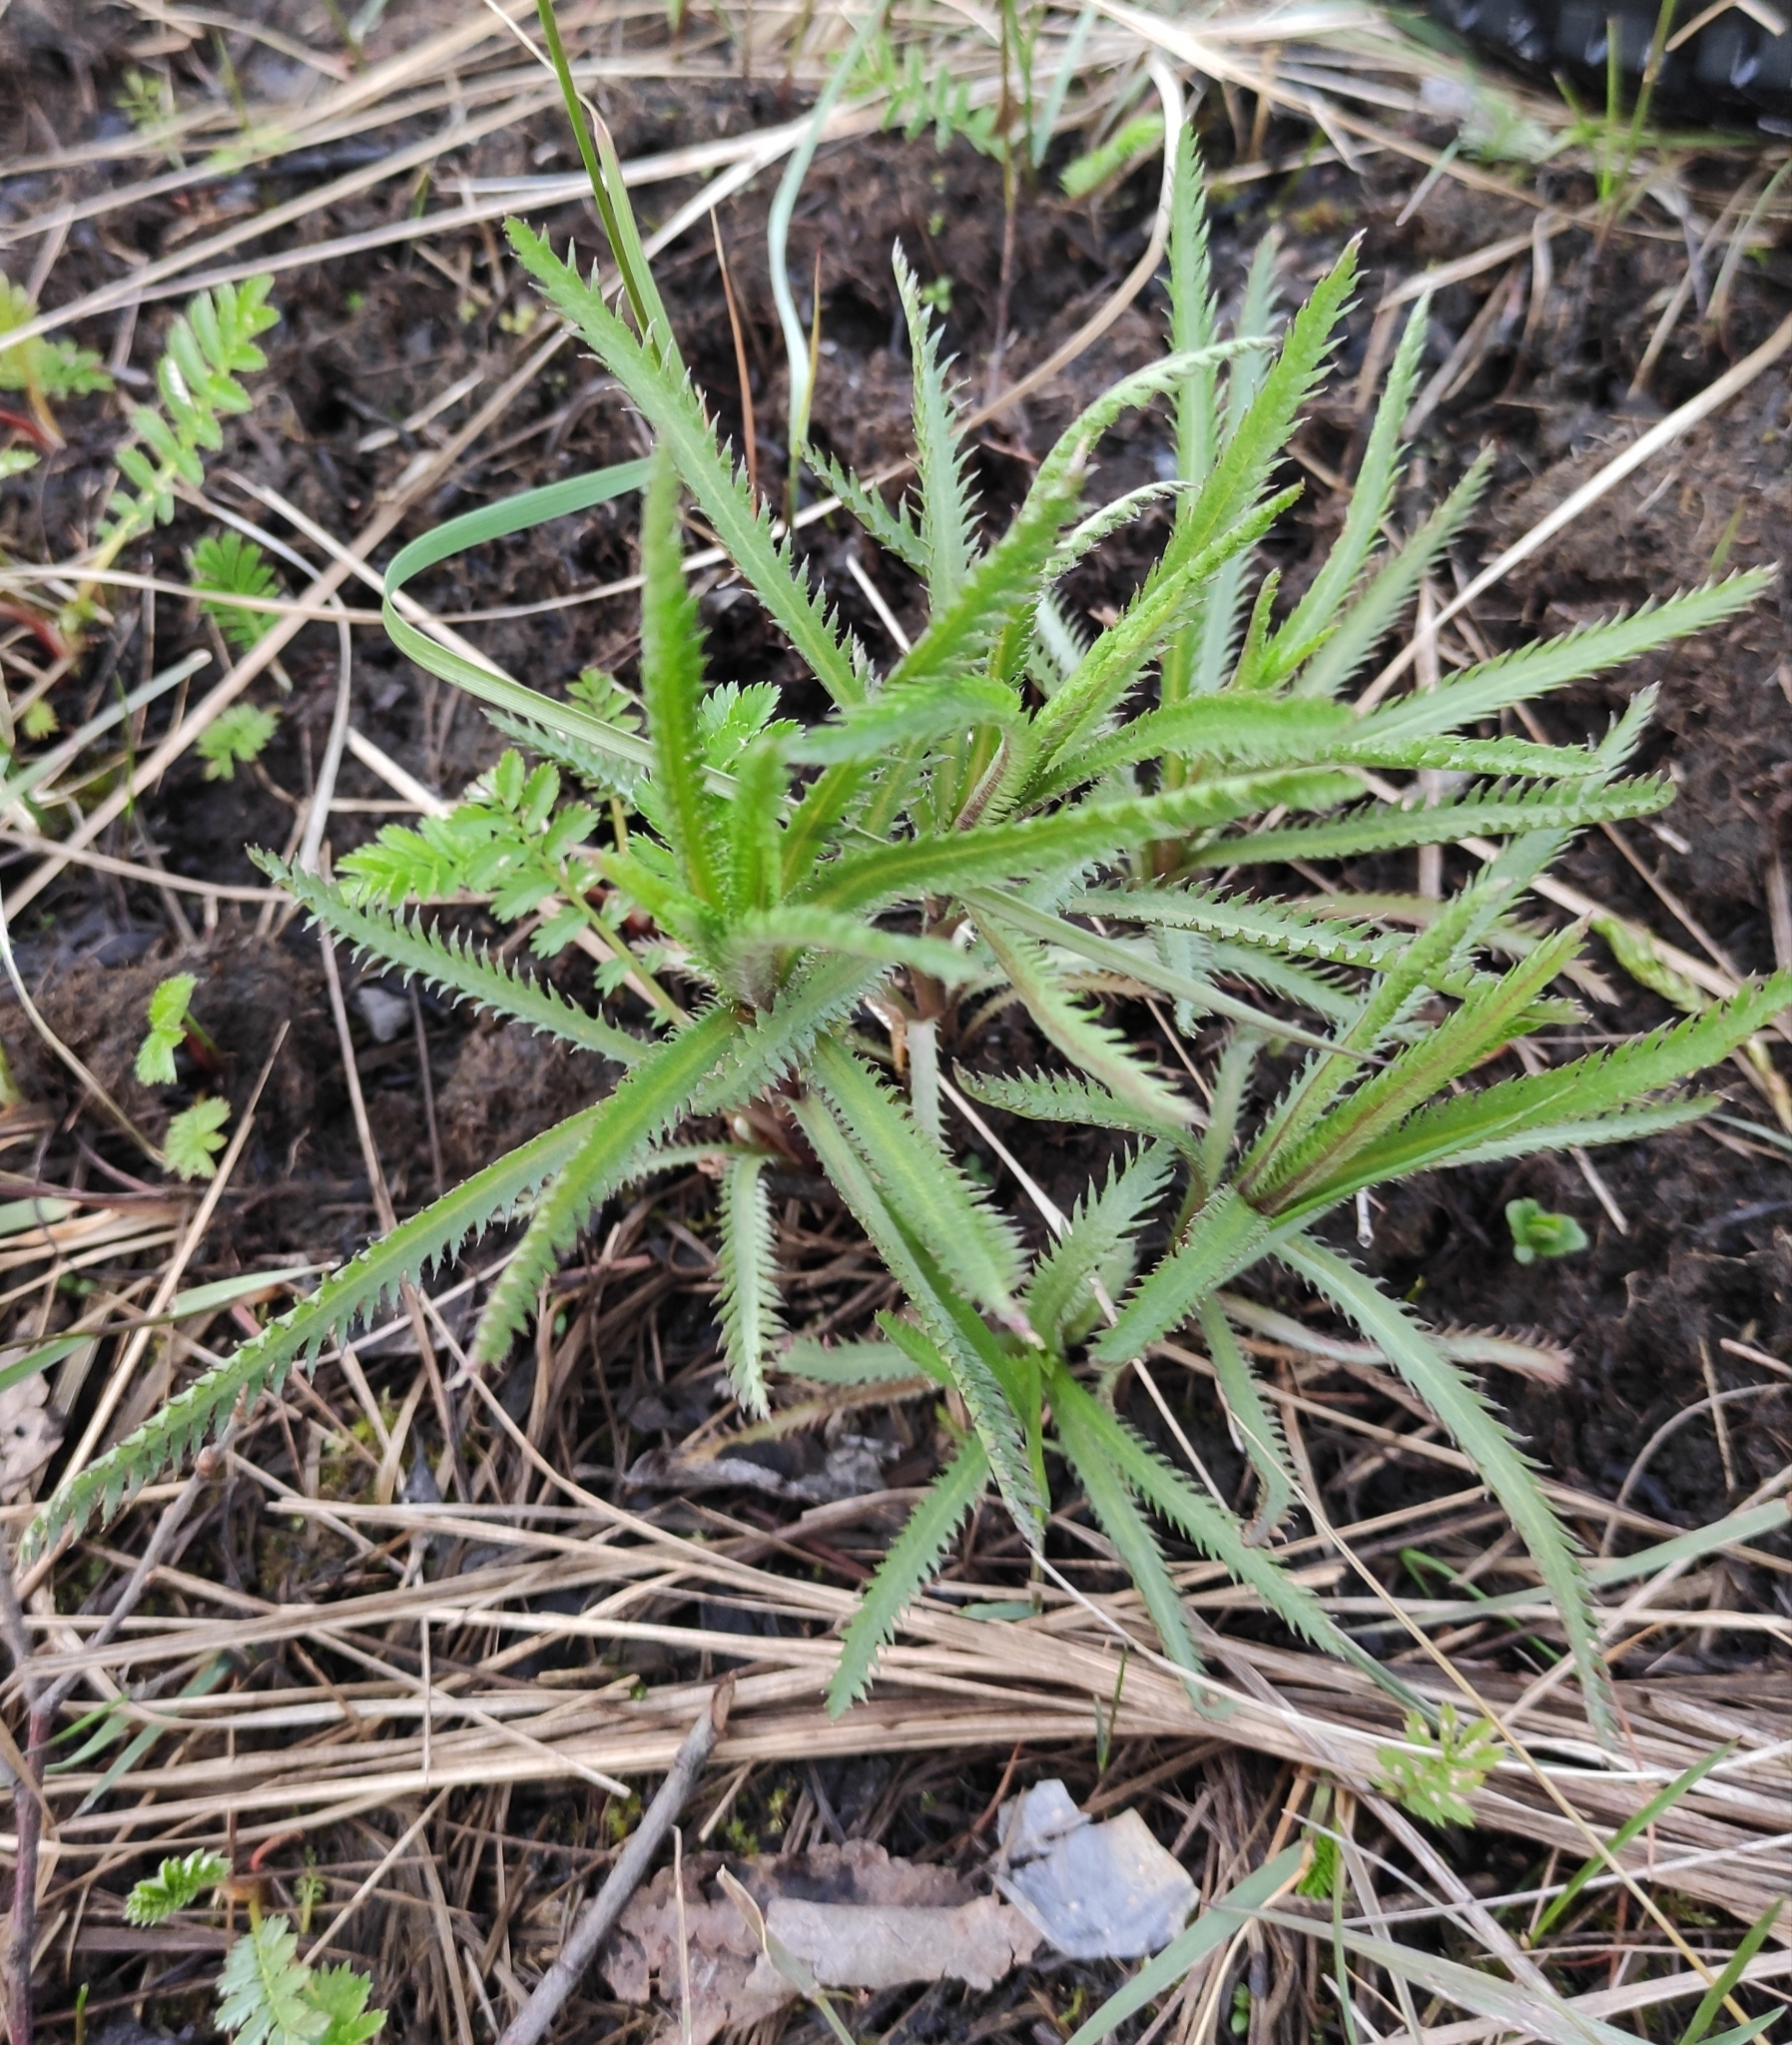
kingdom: Plantae
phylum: Tracheophyta
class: Magnoliopsida
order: Asterales
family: Asteraceae
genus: Achillea
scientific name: Achillea alpina
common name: Siberian yarrow
